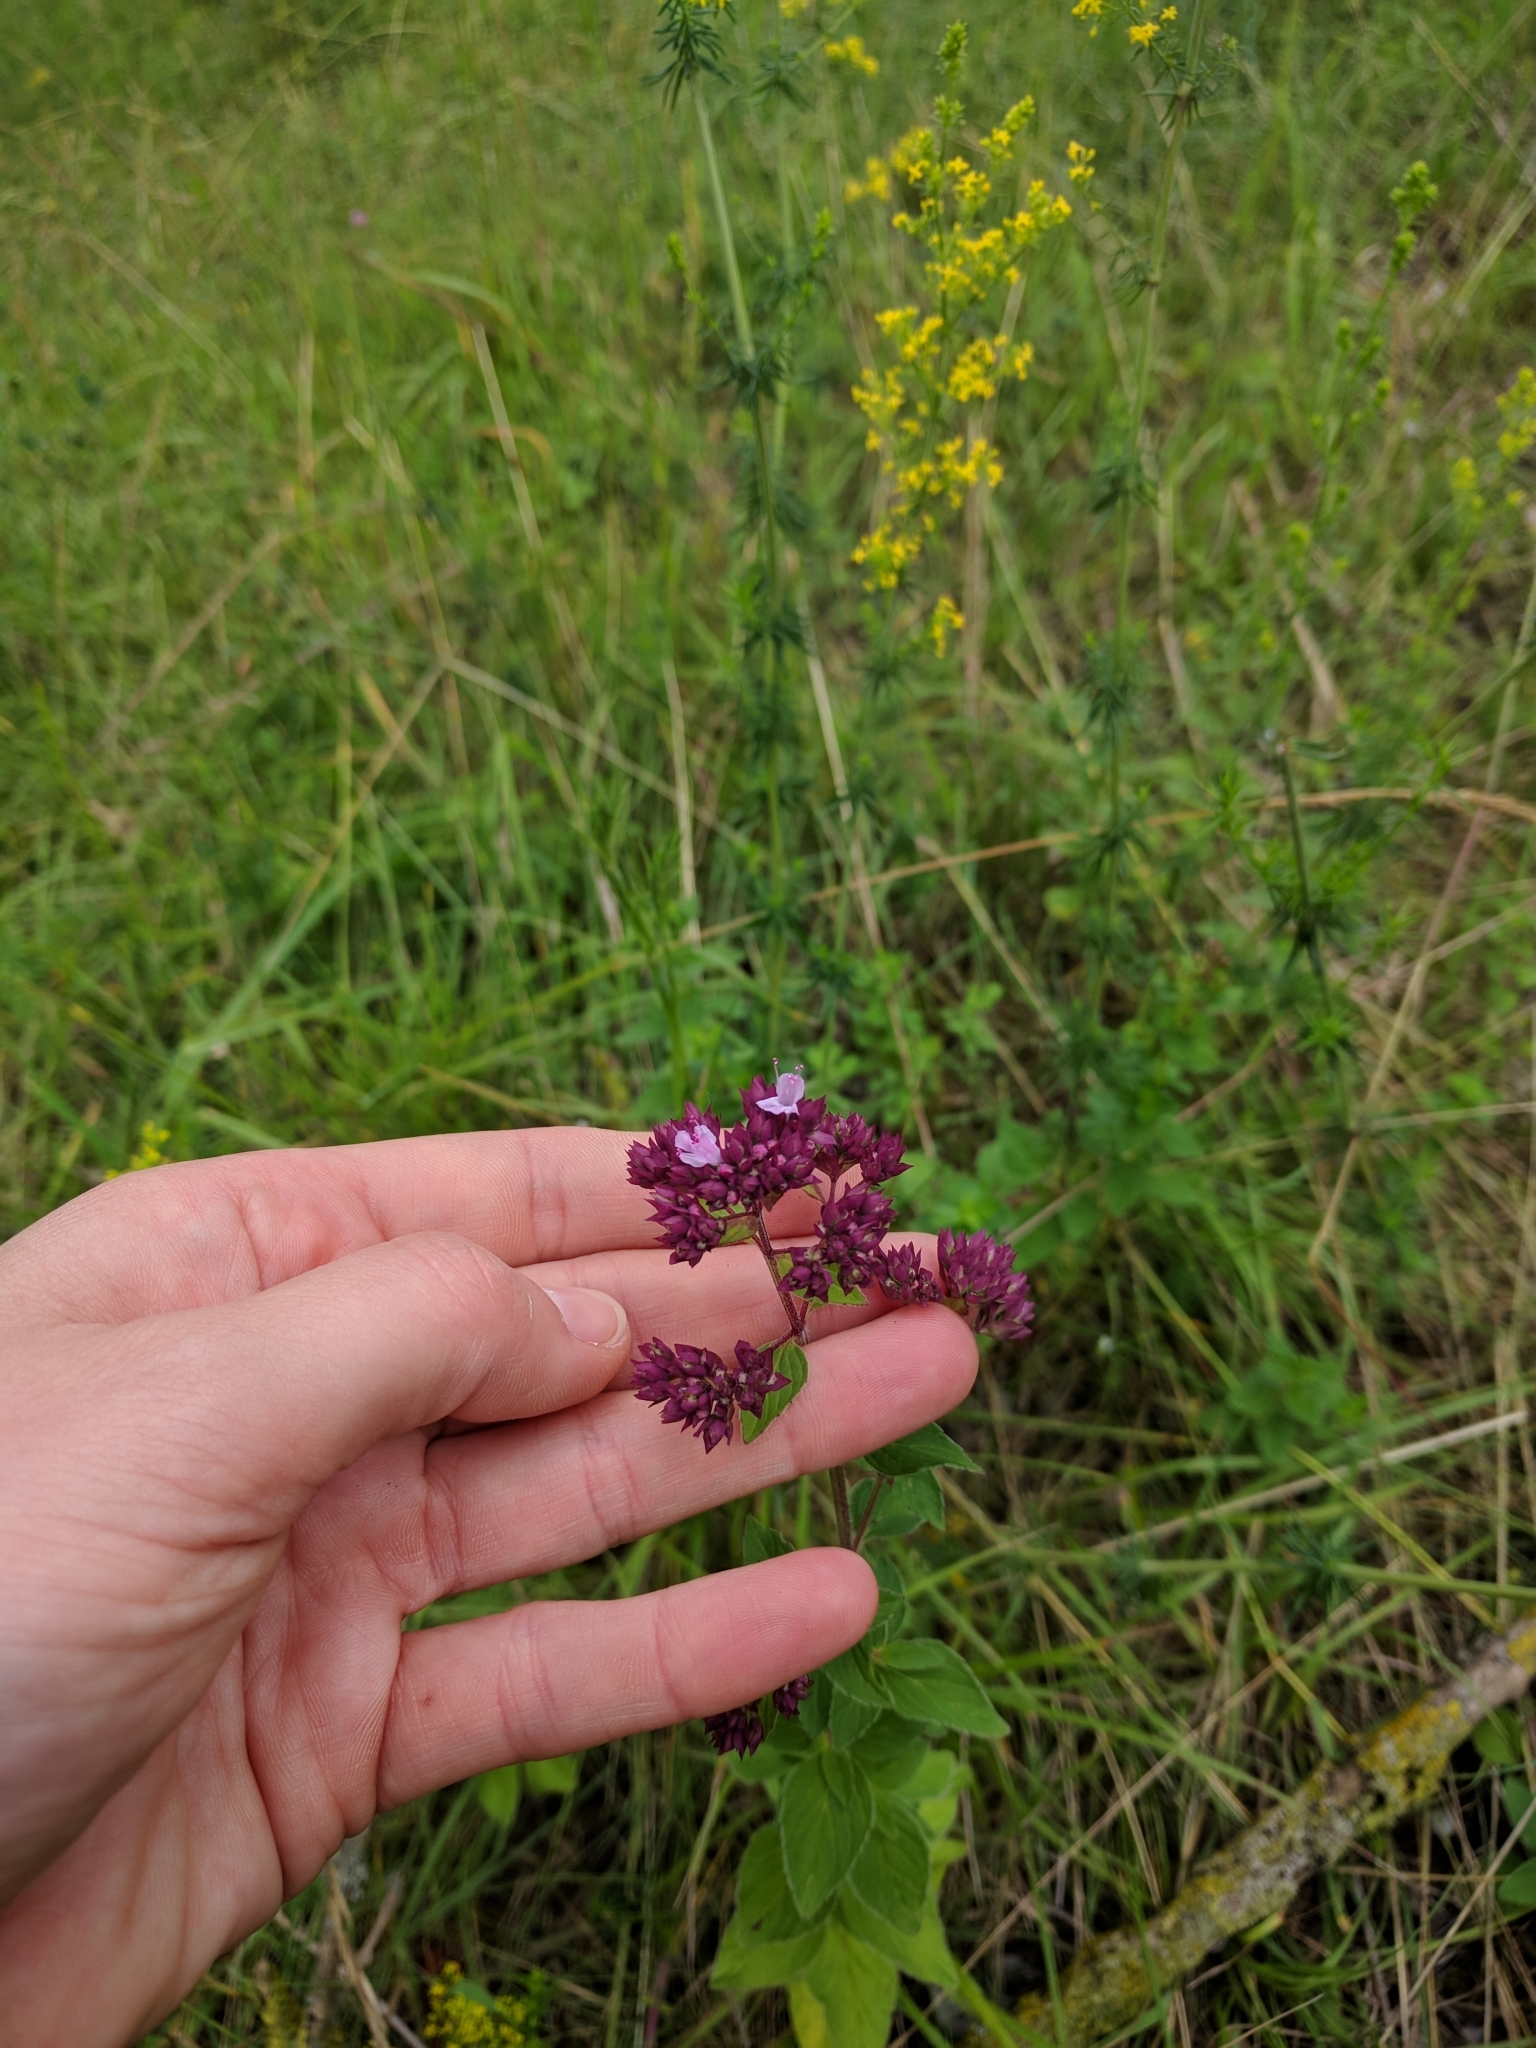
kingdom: Plantae
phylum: Tracheophyta
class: Magnoliopsida
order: Lamiales
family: Lamiaceae
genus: Origanum
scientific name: Origanum vulgare
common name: Wild marjoram
